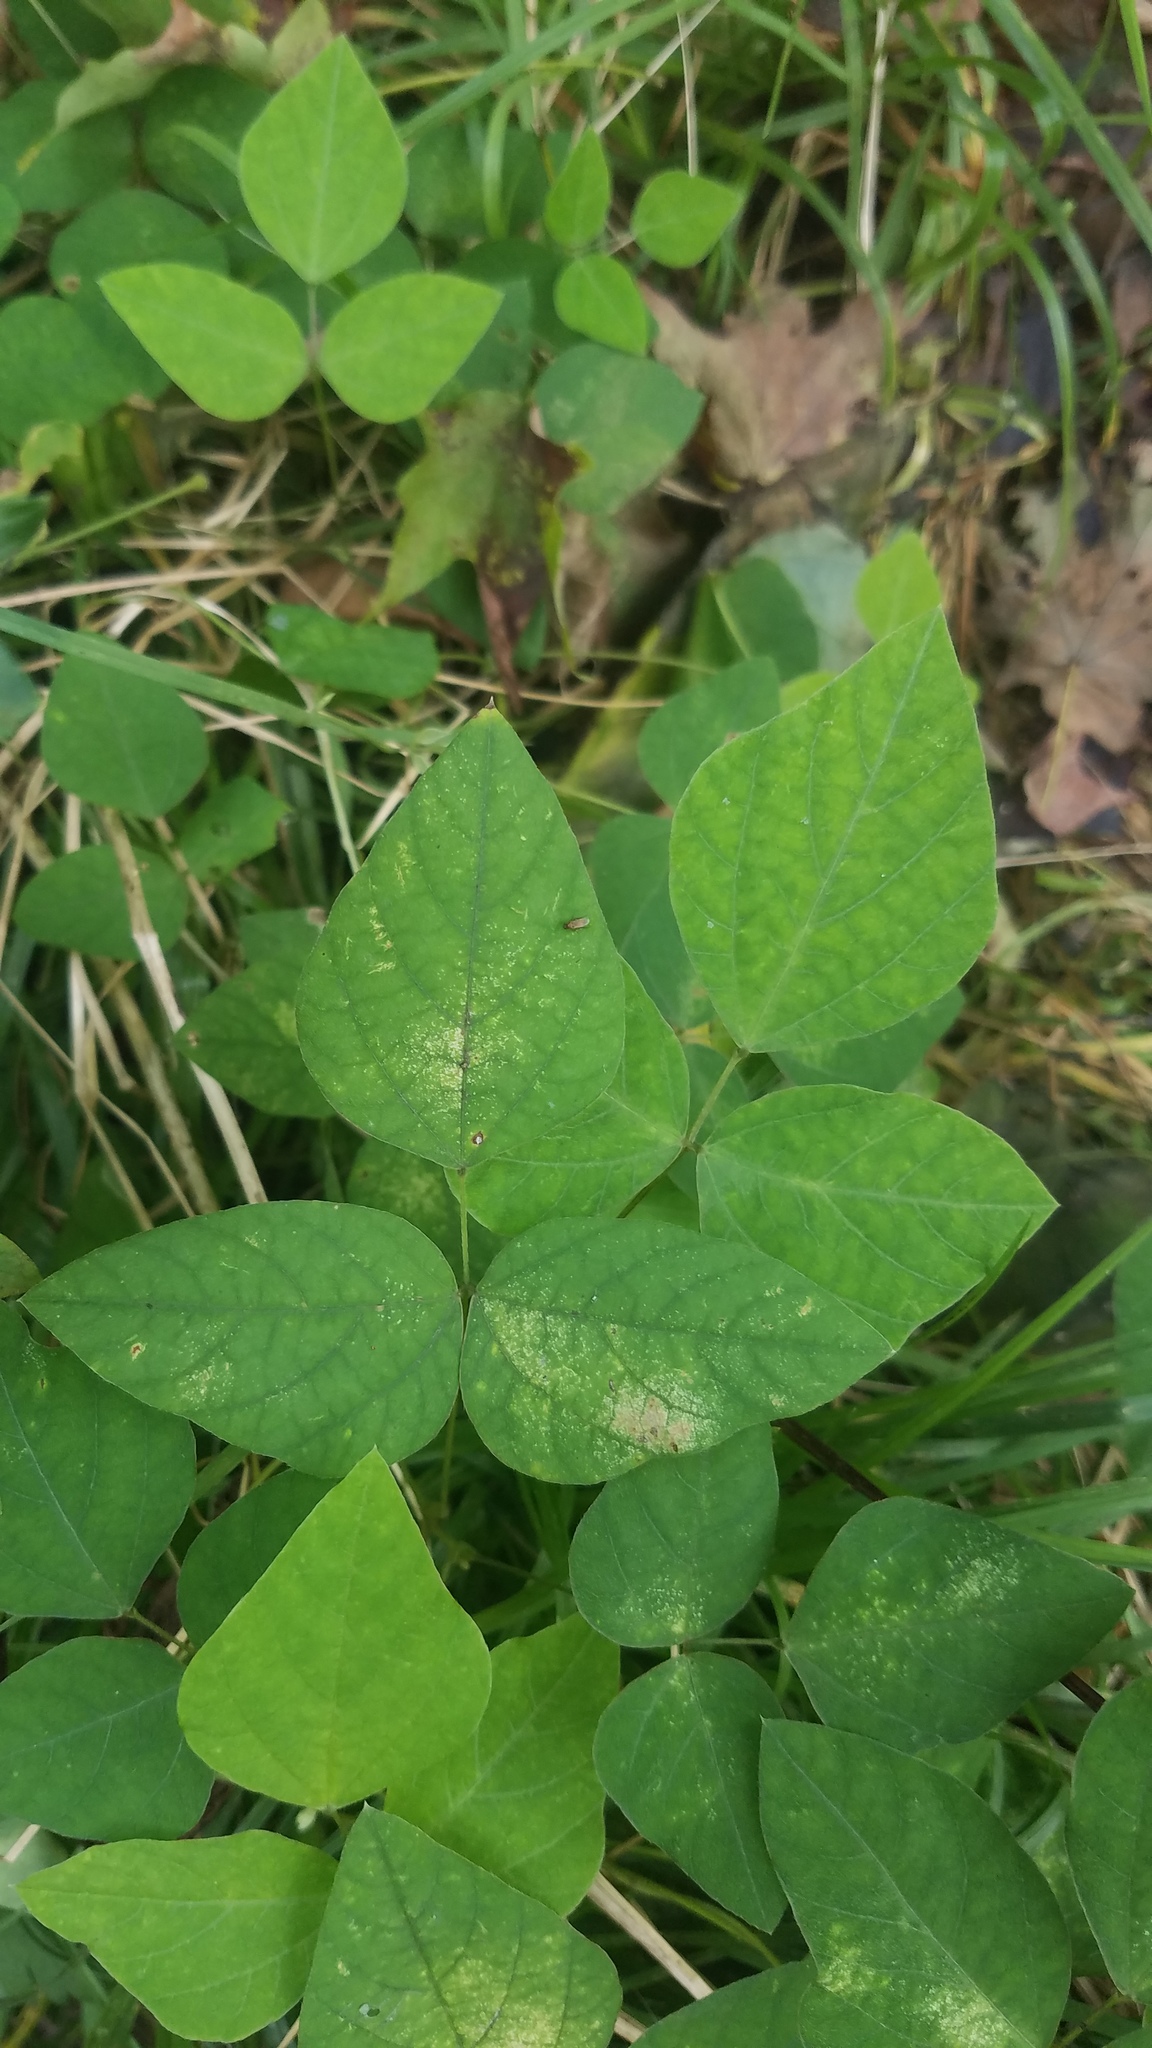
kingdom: Plantae
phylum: Tracheophyta
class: Magnoliopsida
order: Fabales
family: Fabaceae
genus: Amphicarpaea
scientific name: Amphicarpaea bracteata
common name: American hog peanut
